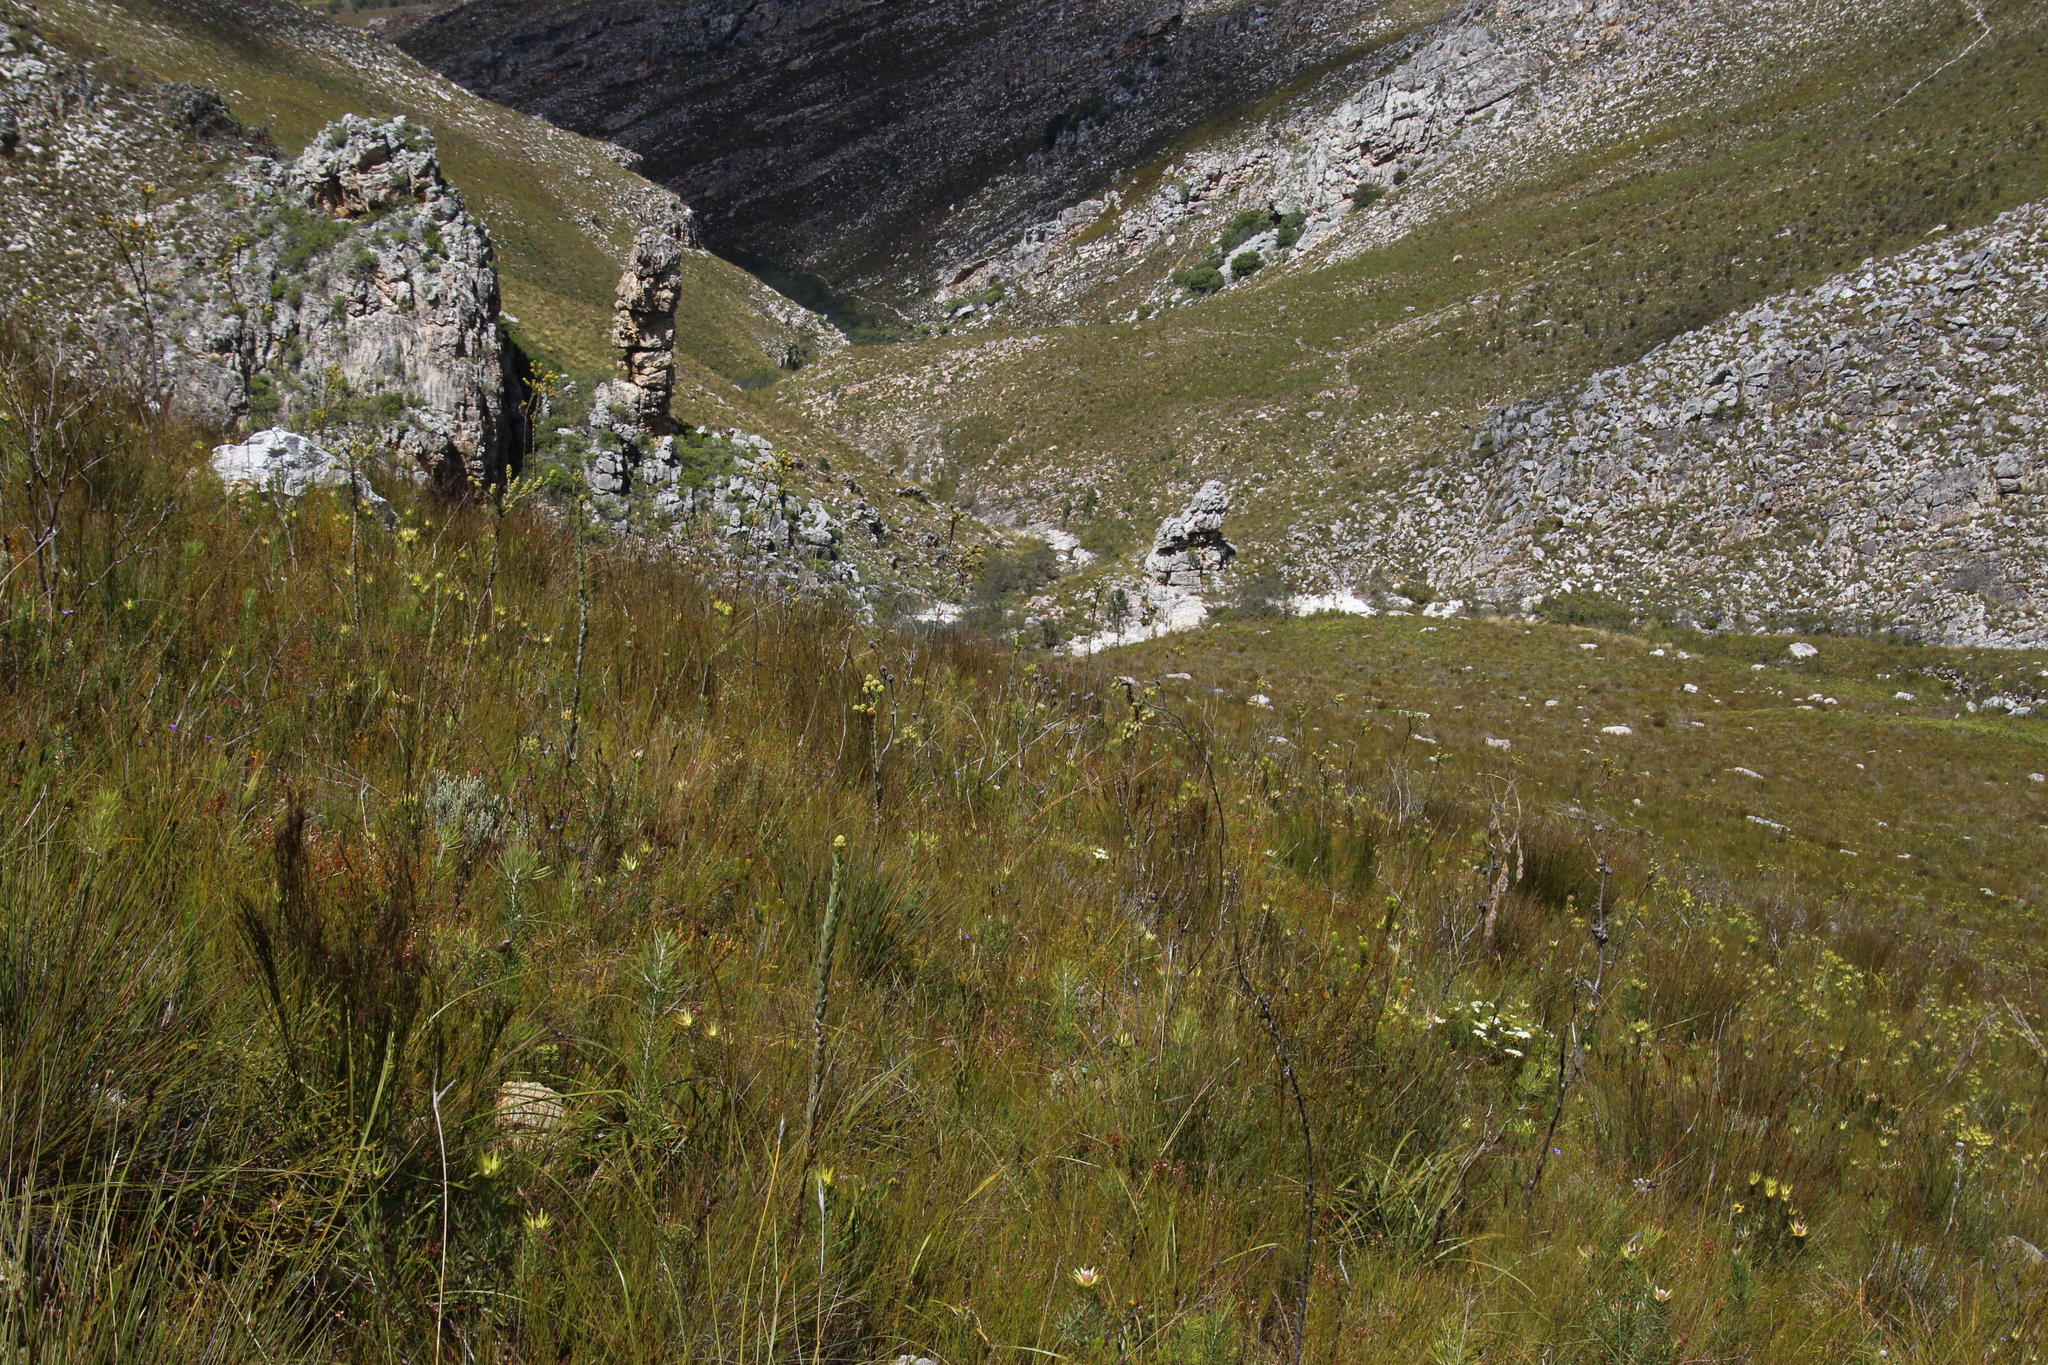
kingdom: Plantae
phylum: Tracheophyta
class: Magnoliopsida
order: Proteales
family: Proteaceae
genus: Serruria
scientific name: Serruria phylicoides
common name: Bearded spiderhead
